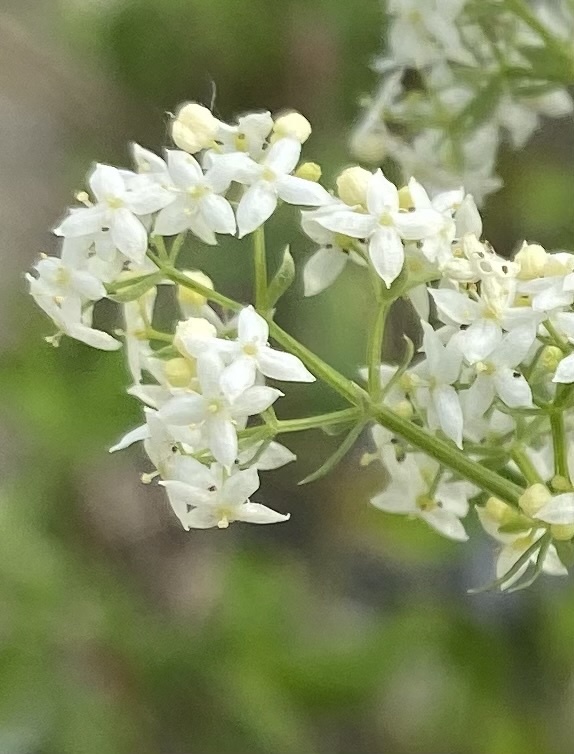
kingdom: Plantae
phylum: Tracheophyta
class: Magnoliopsida
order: Gentianales
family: Rubiaceae
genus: Galium
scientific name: Galium mollugo
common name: Hedge bedstraw
